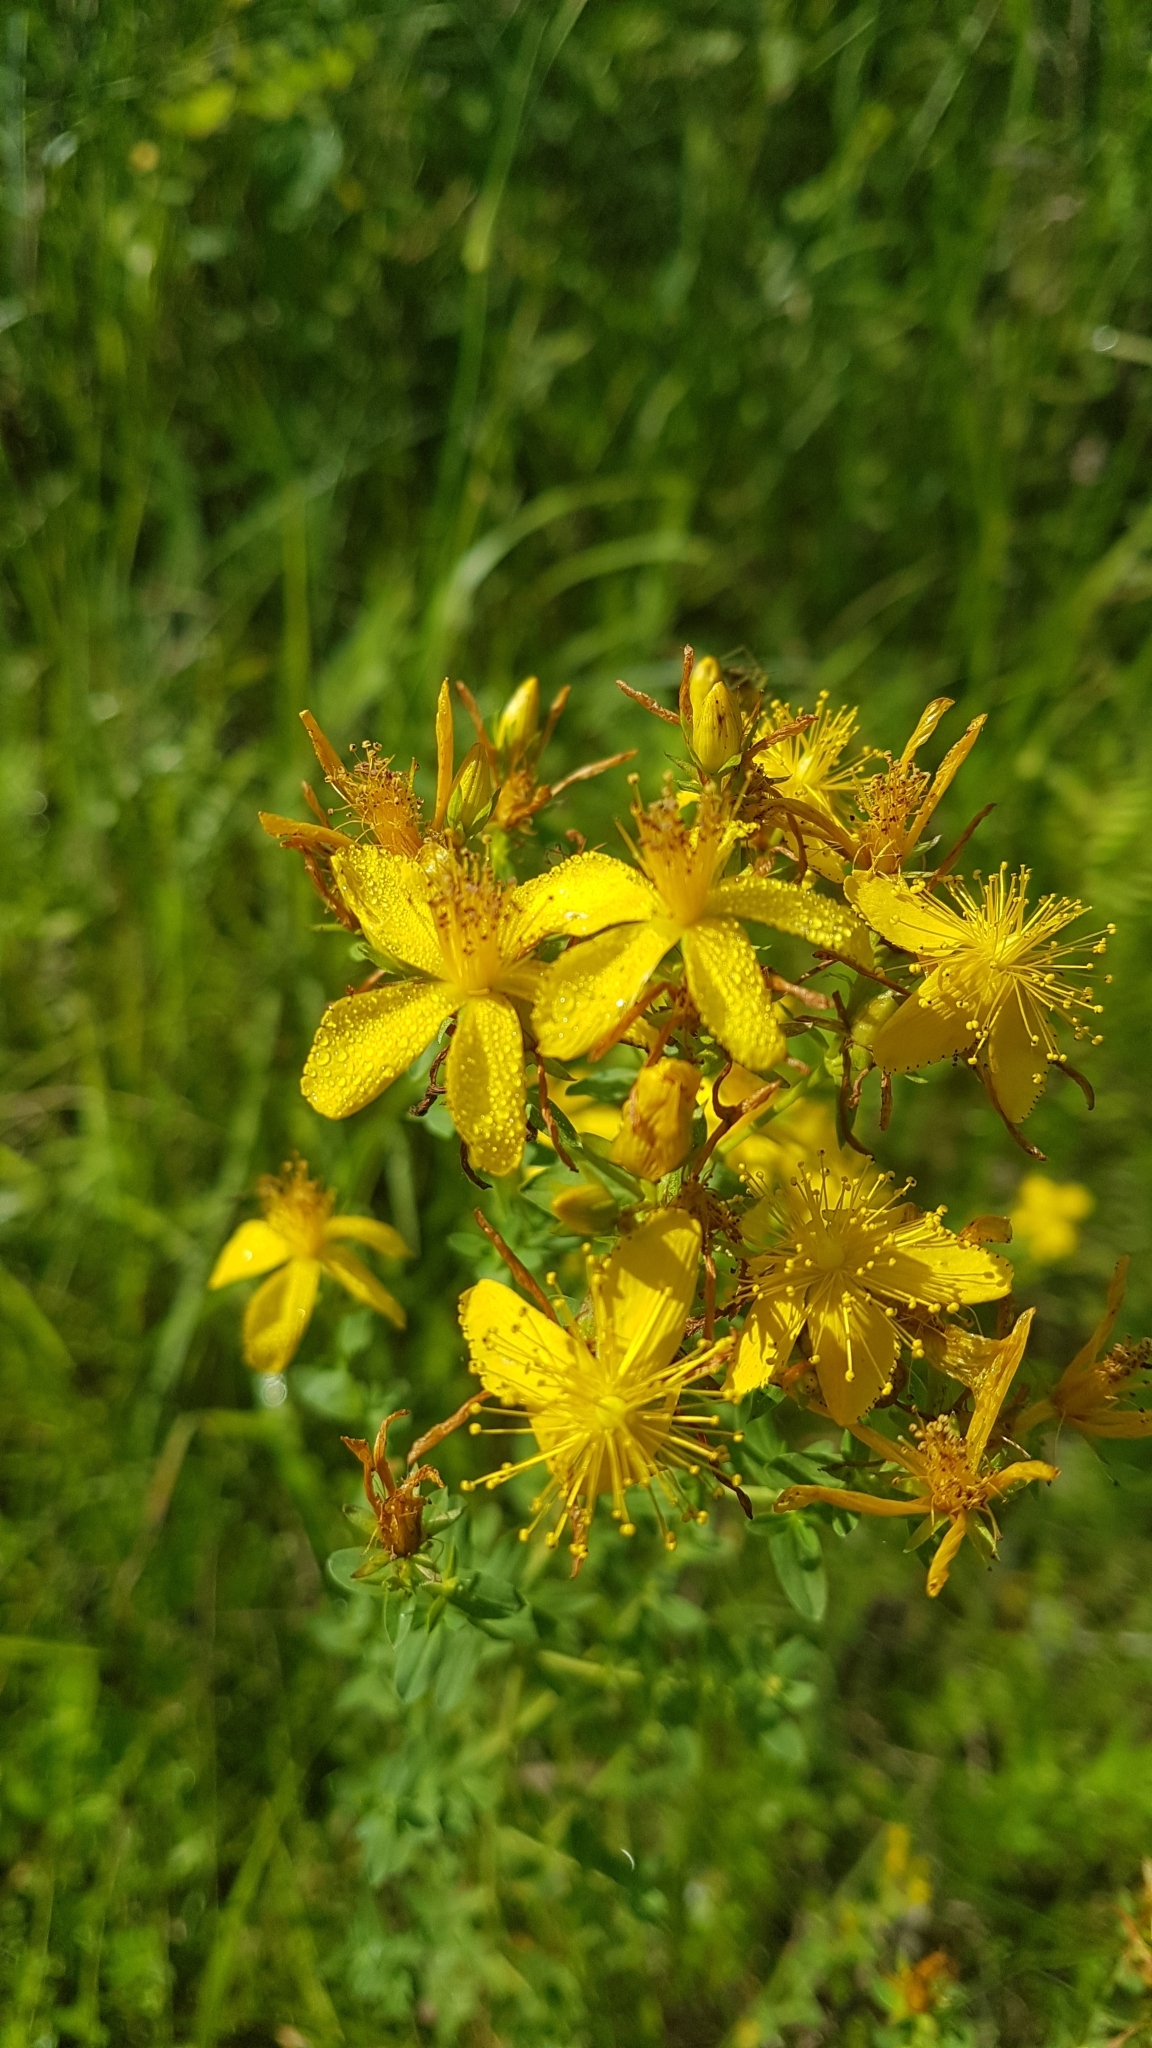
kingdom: Plantae
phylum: Tracheophyta
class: Magnoliopsida
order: Malpighiales
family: Hypericaceae
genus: Hypericum
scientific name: Hypericum perforatum
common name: Common st. johnswort
